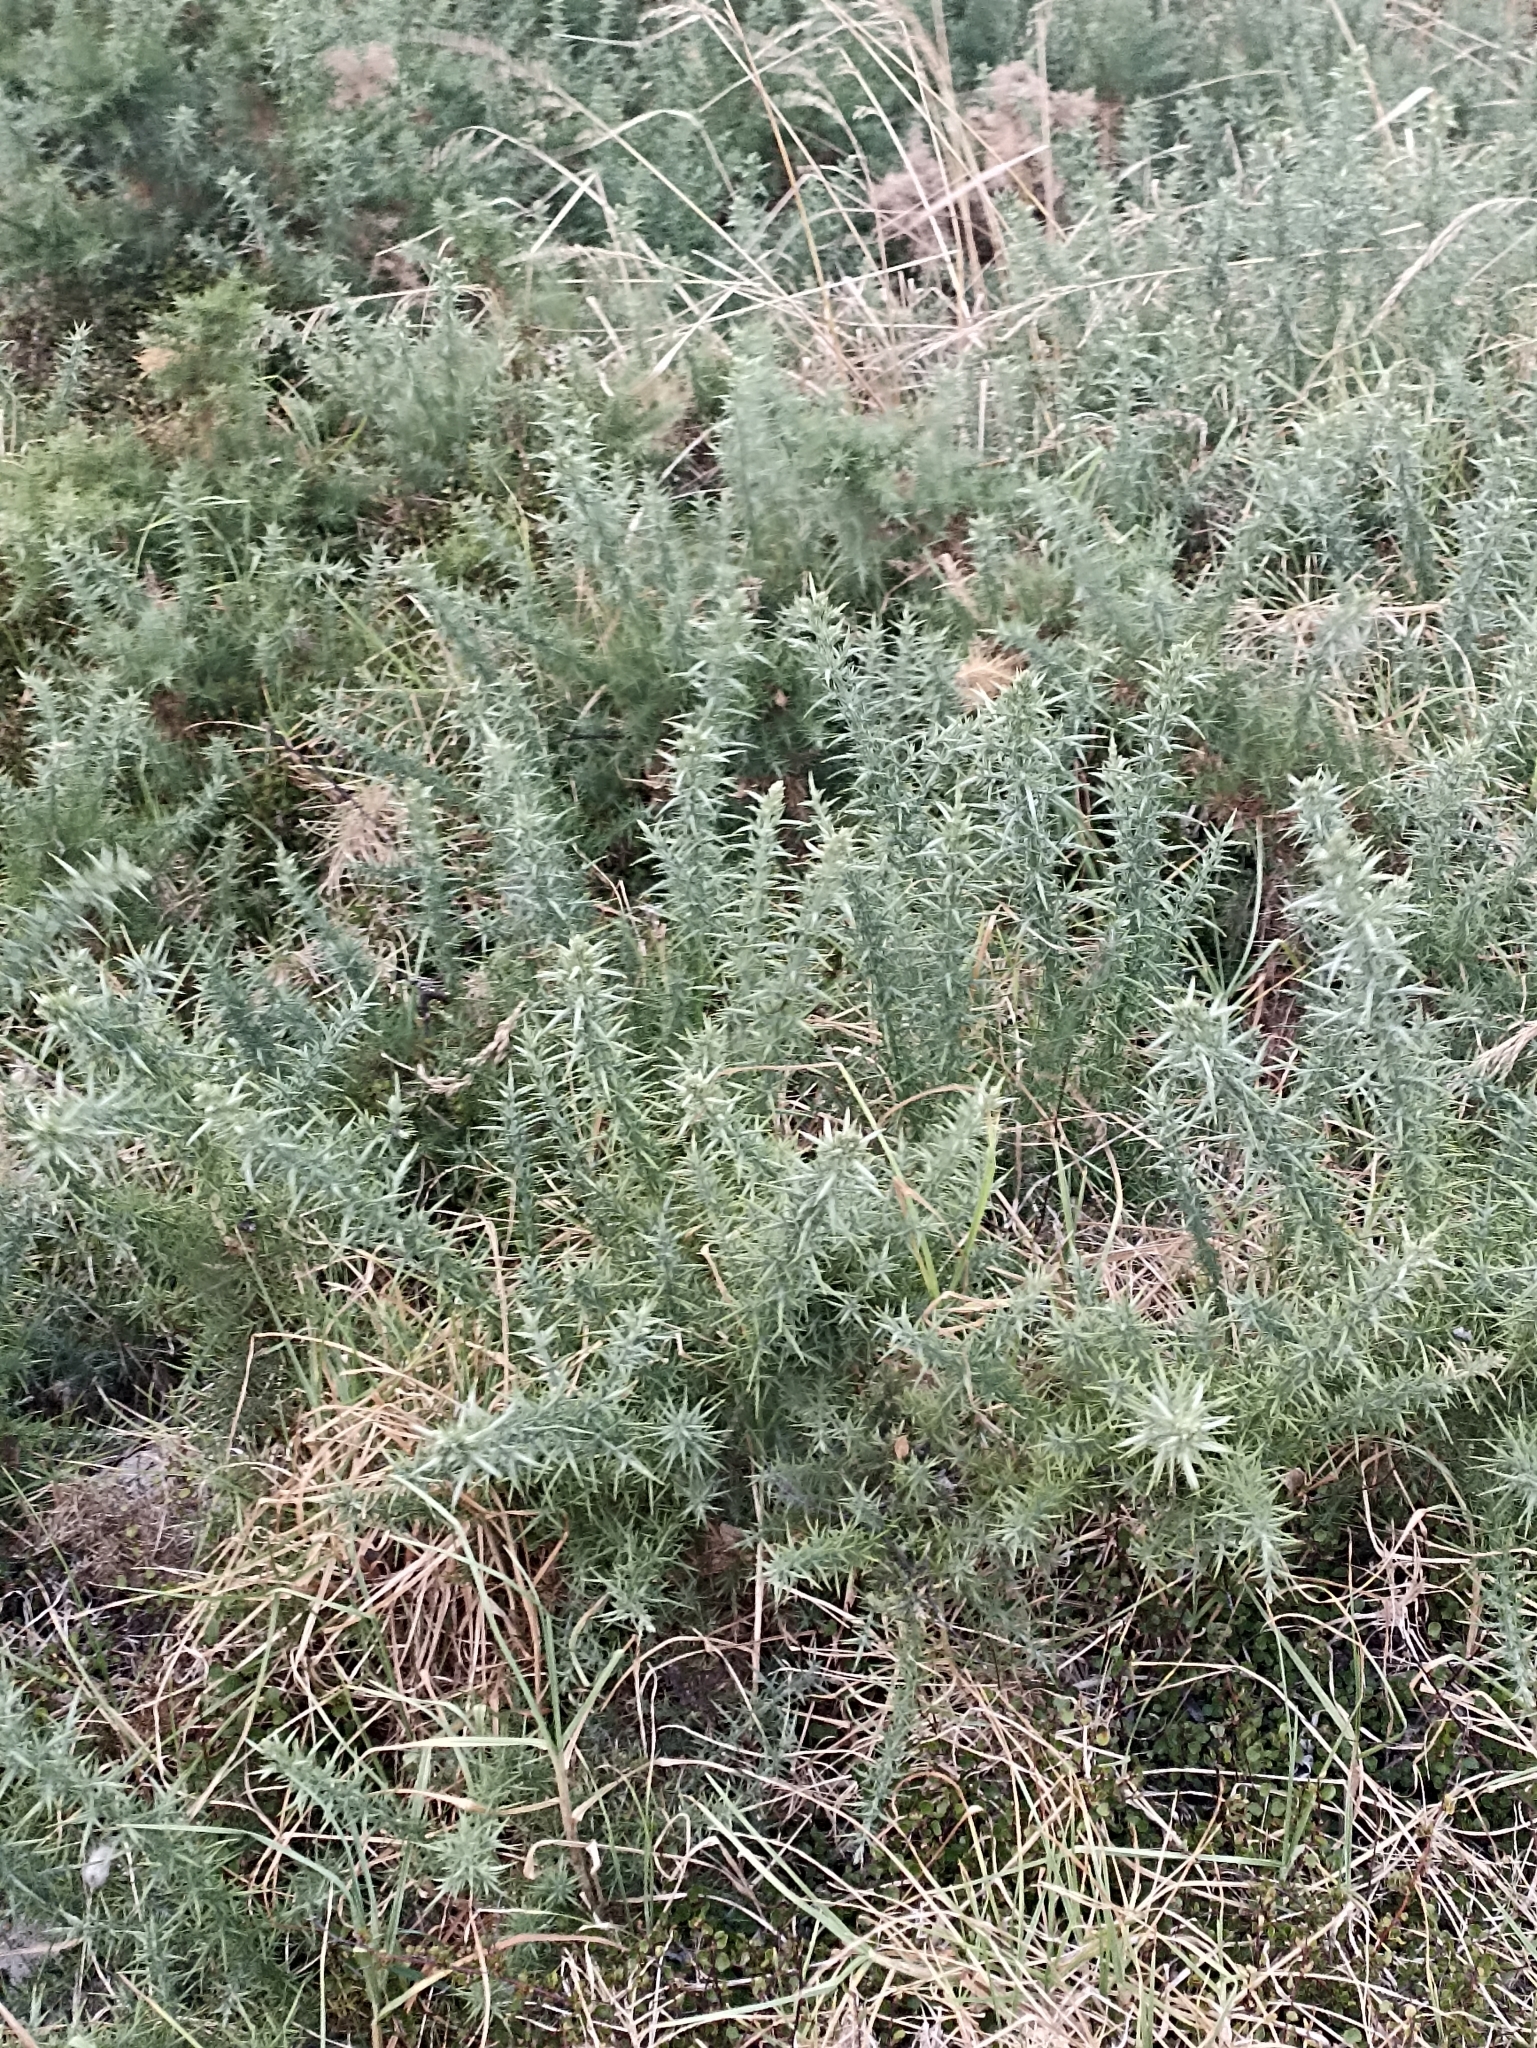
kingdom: Plantae
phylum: Tracheophyta
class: Magnoliopsida
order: Fabales
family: Fabaceae
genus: Ulex
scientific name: Ulex europaeus
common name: Common gorse
